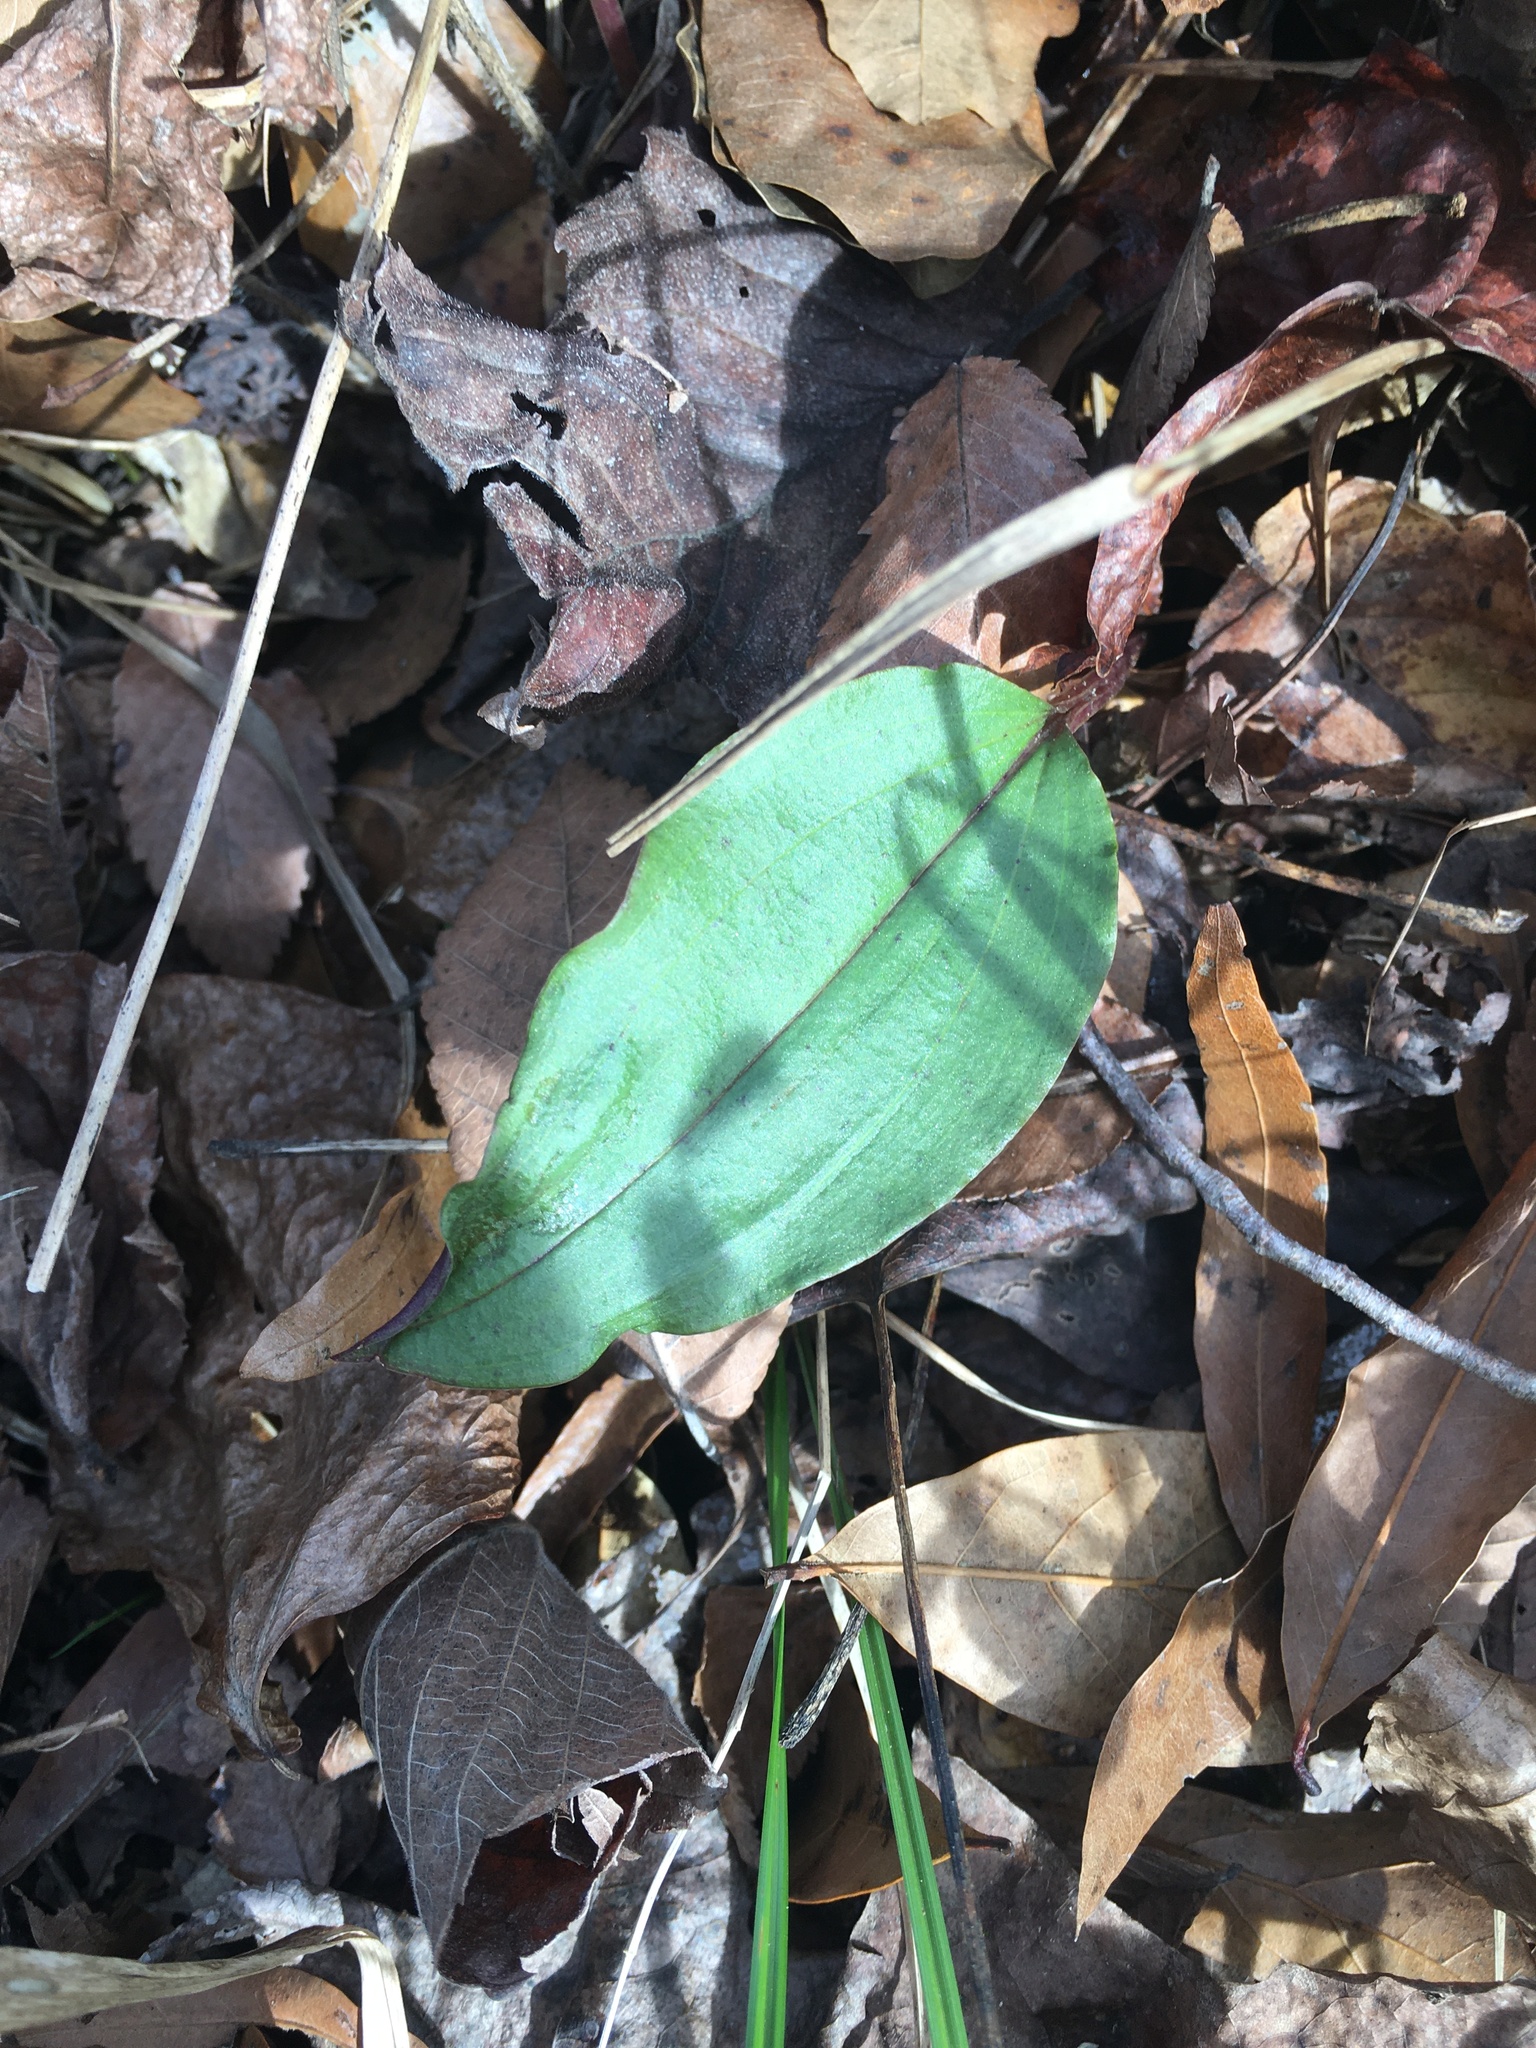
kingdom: Plantae
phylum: Tracheophyta
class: Liliopsida
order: Asparagales
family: Orchidaceae
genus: Tipularia
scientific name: Tipularia discolor
